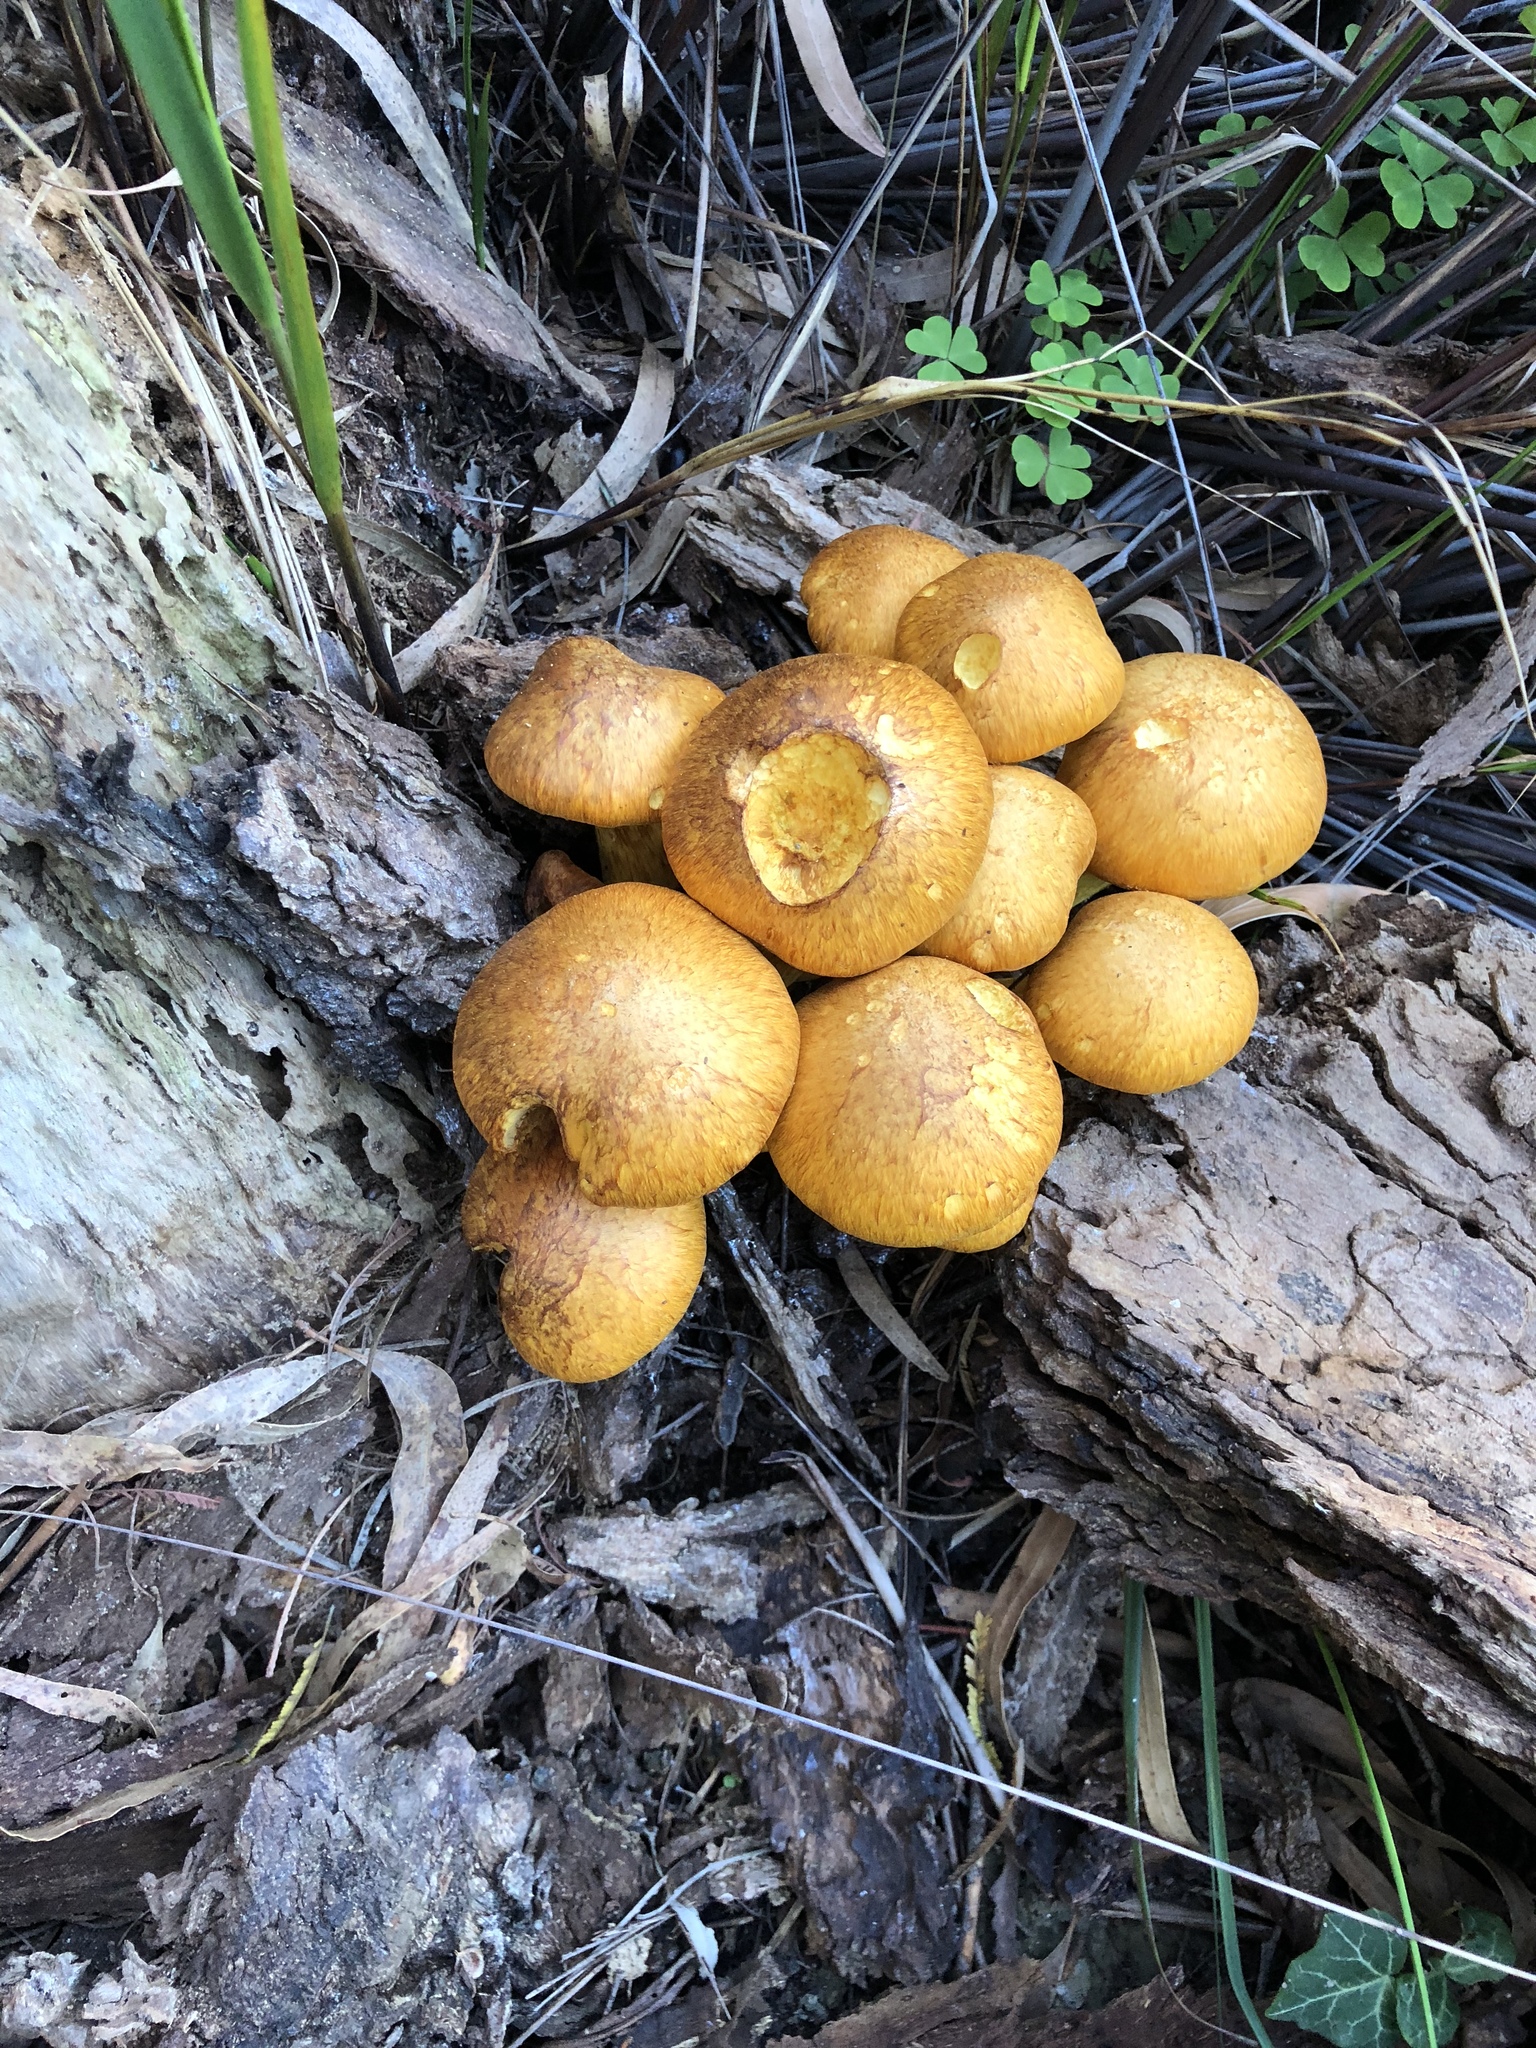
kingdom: Fungi
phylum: Basidiomycota
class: Agaricomycetes
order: Agaricales
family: Hymenogastraceae
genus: Gymnopilus
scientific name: Gymnopilus junonius
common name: Spectacular rustgill
